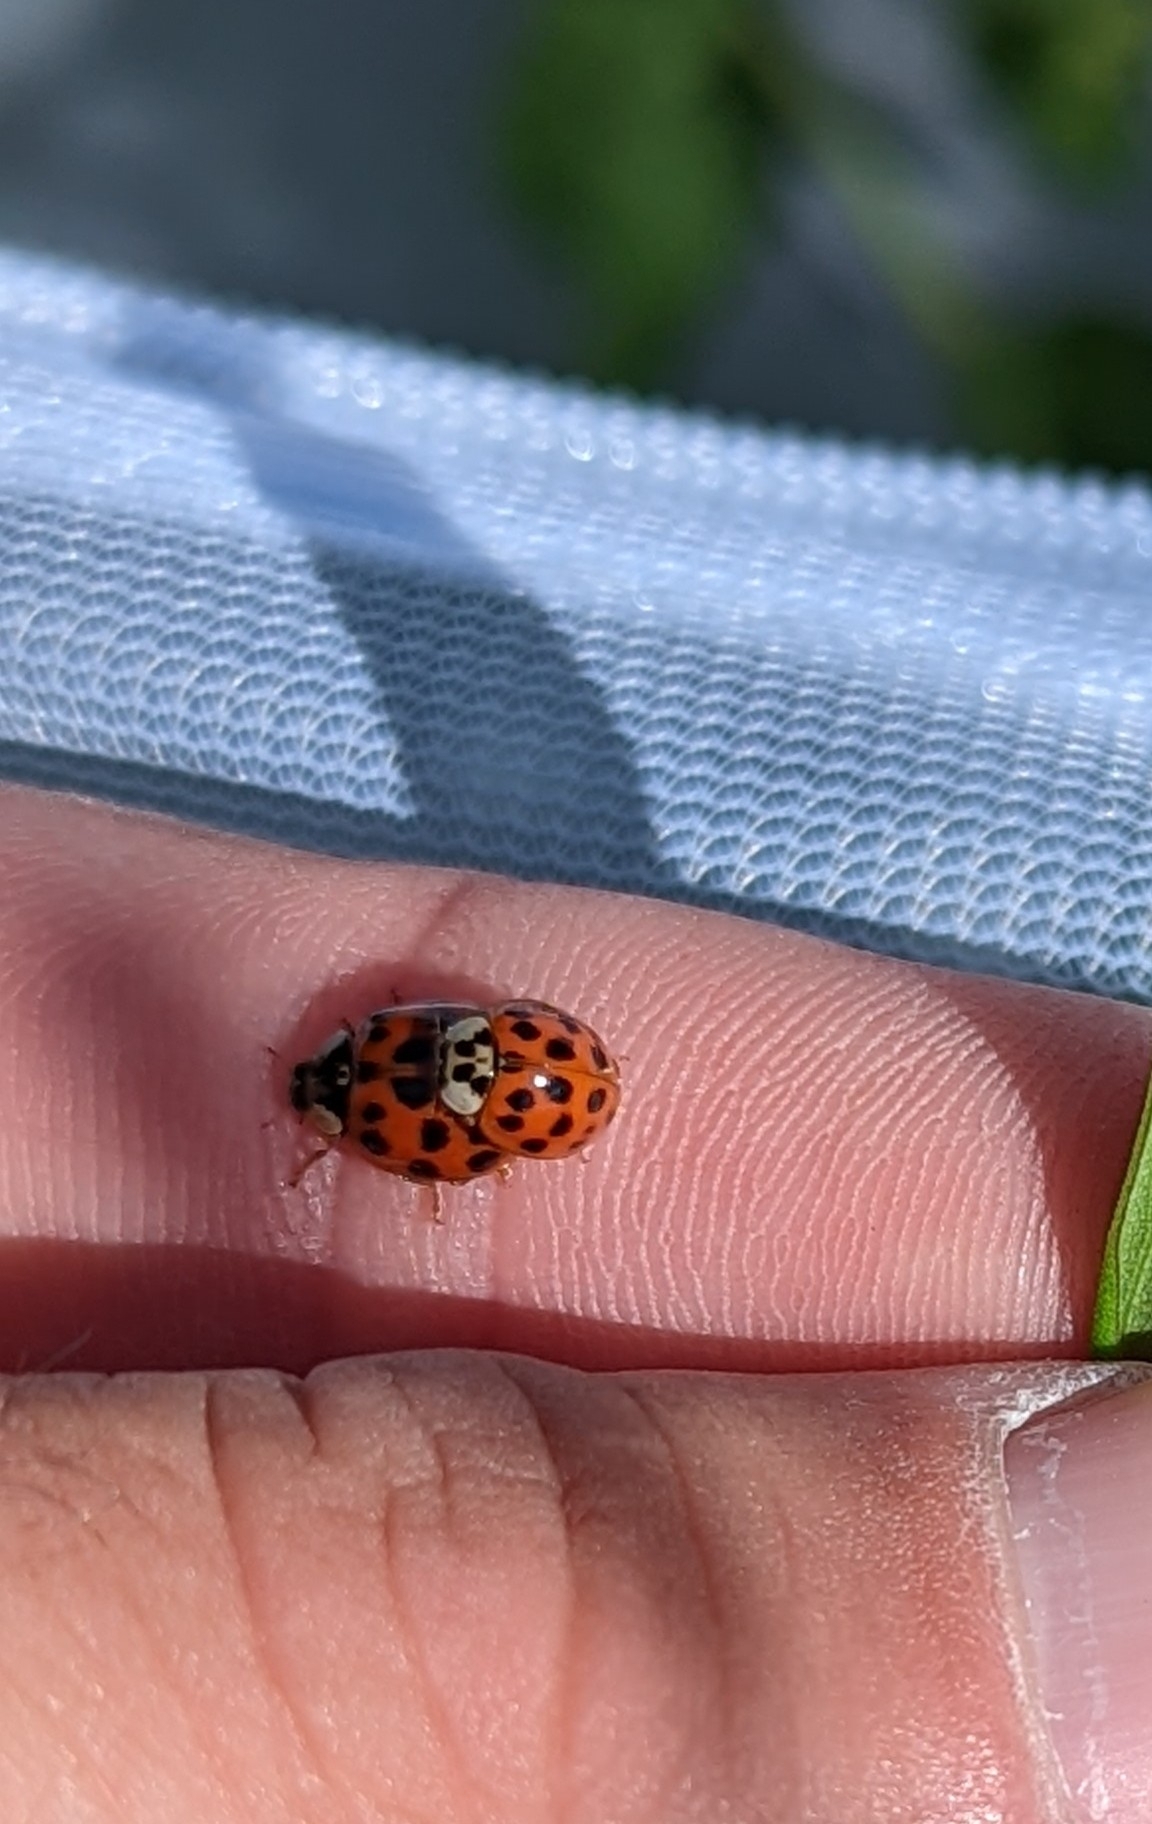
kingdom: Animalia
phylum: Arthropoda
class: Insecta
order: Coleoptera
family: Coccinellidae
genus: Harmonia
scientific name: Harmonia axyridis
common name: Harlequin ladybird
